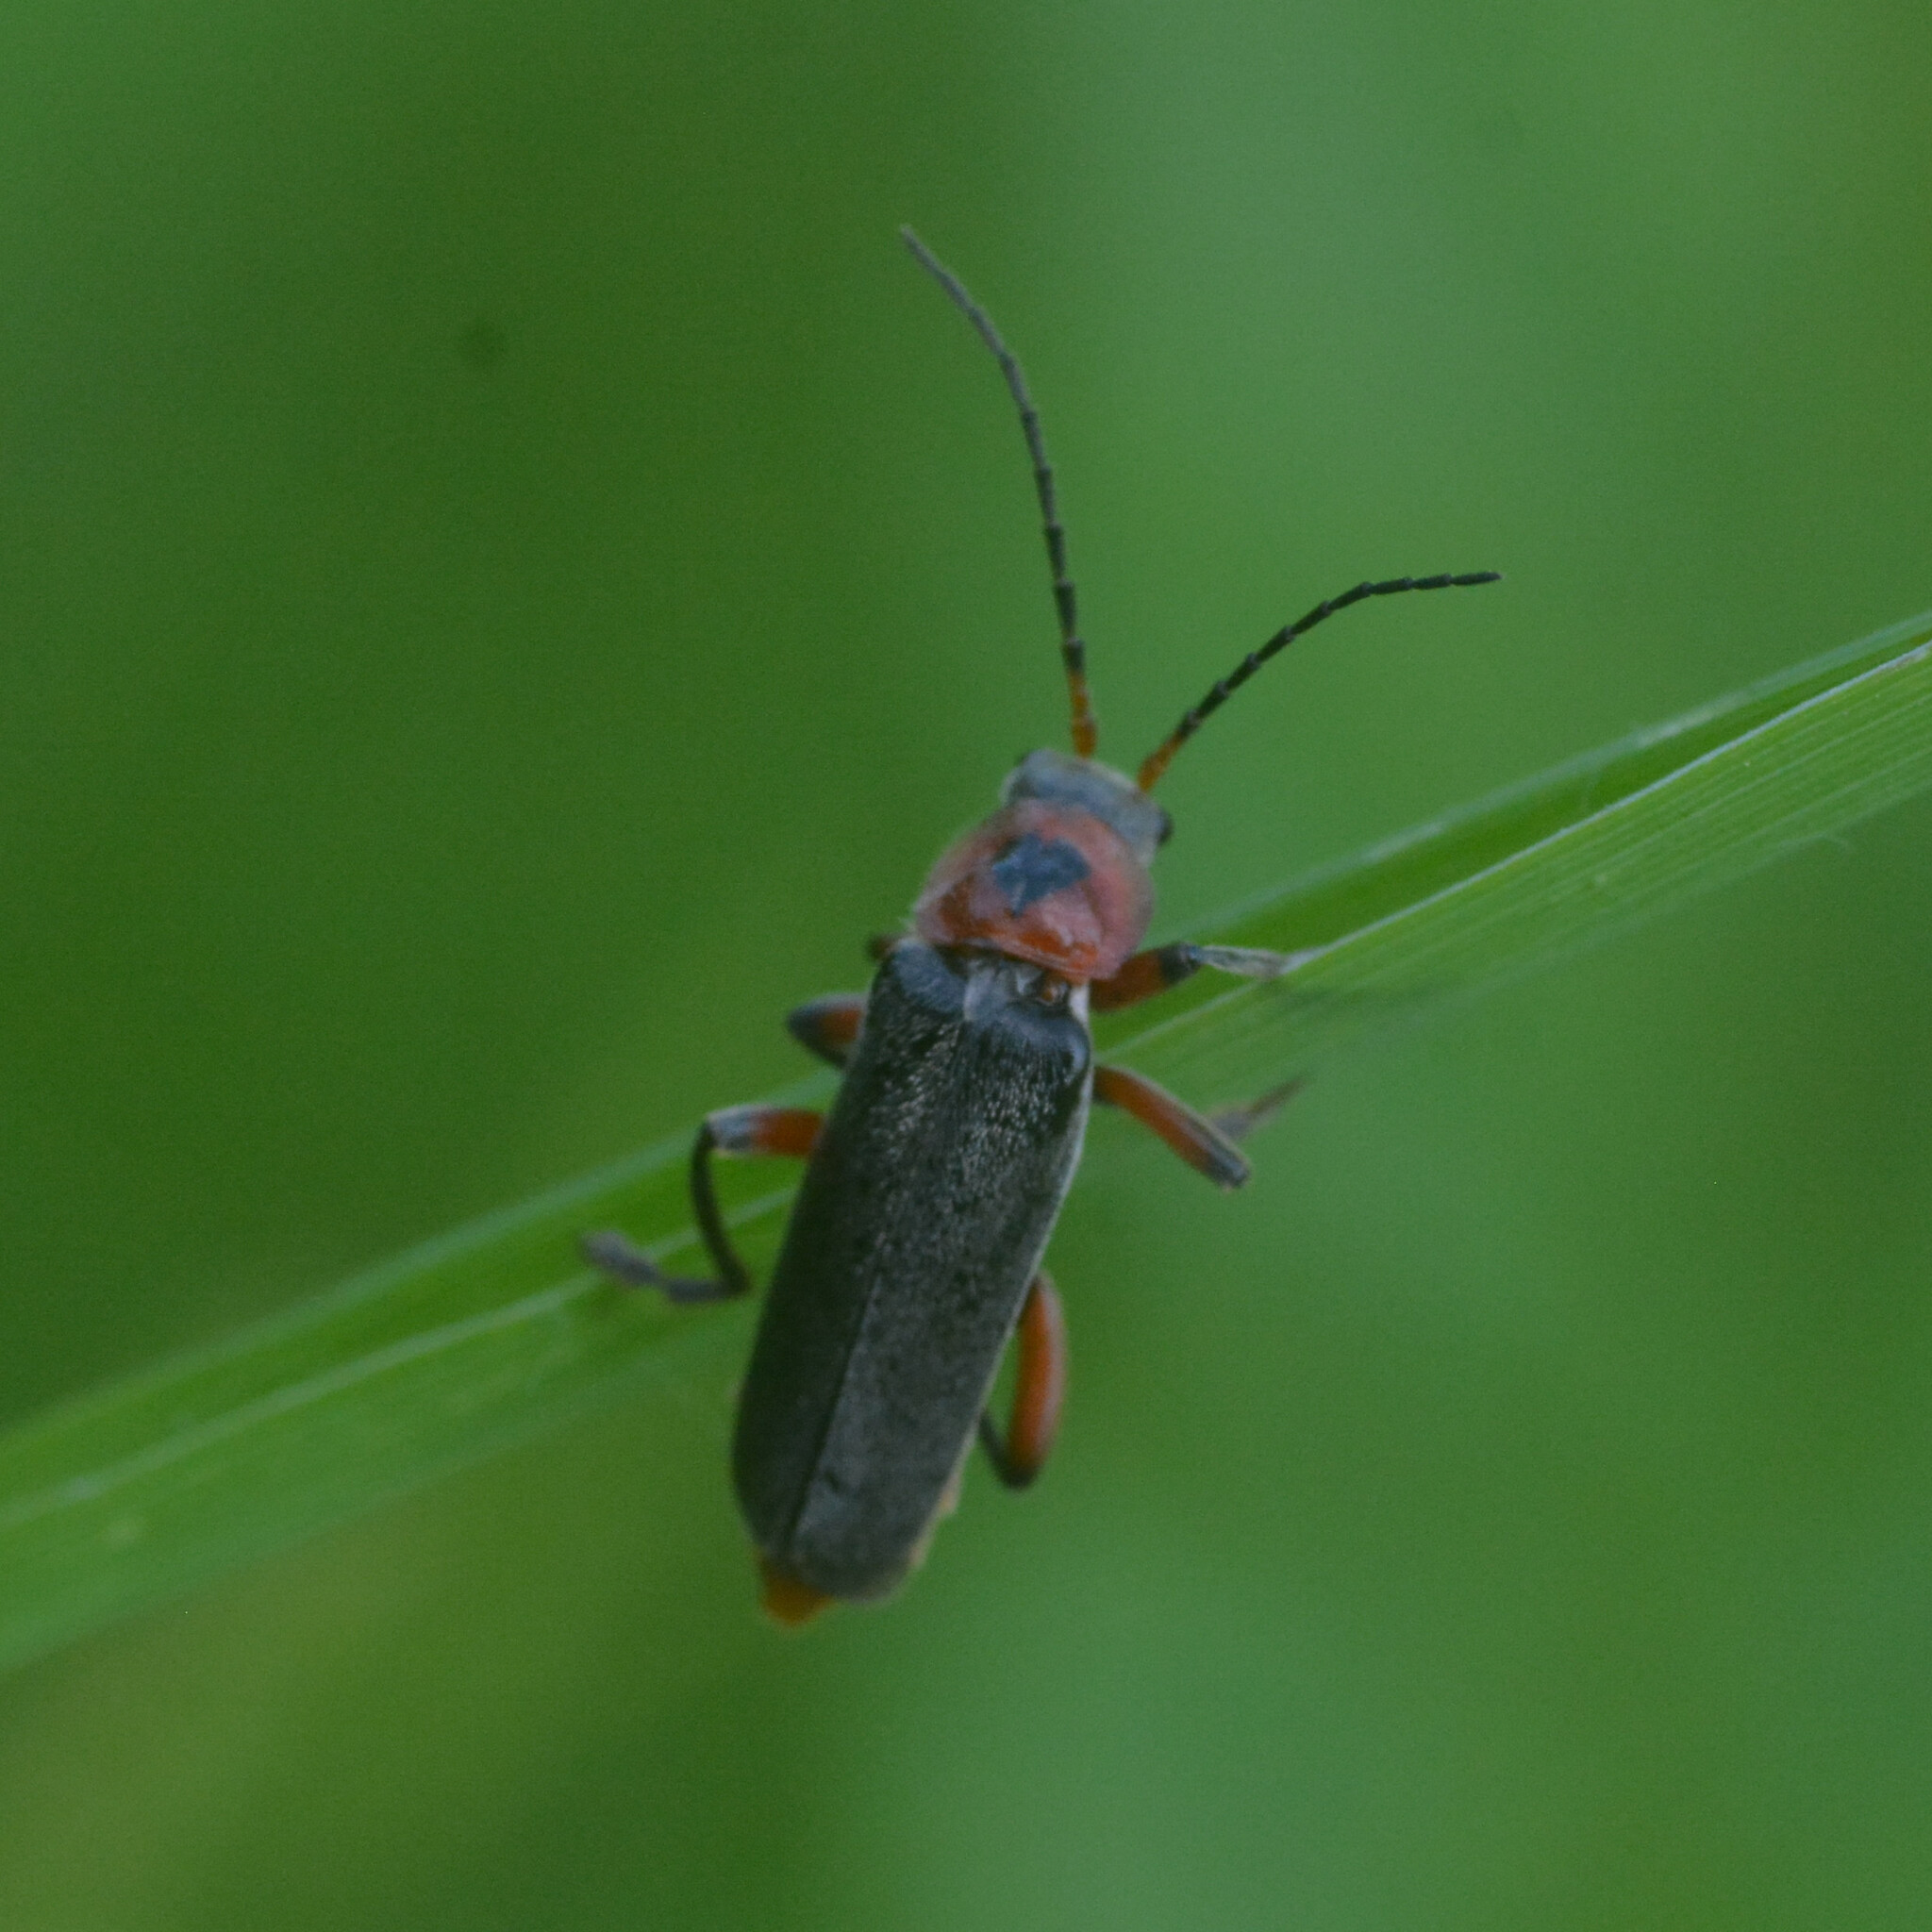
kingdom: Animalia
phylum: Arthropoda
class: Insecta
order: Coleoptera
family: Cantharidae
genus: Cantharis
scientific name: Cantharis rustica
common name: Soldier beetle
